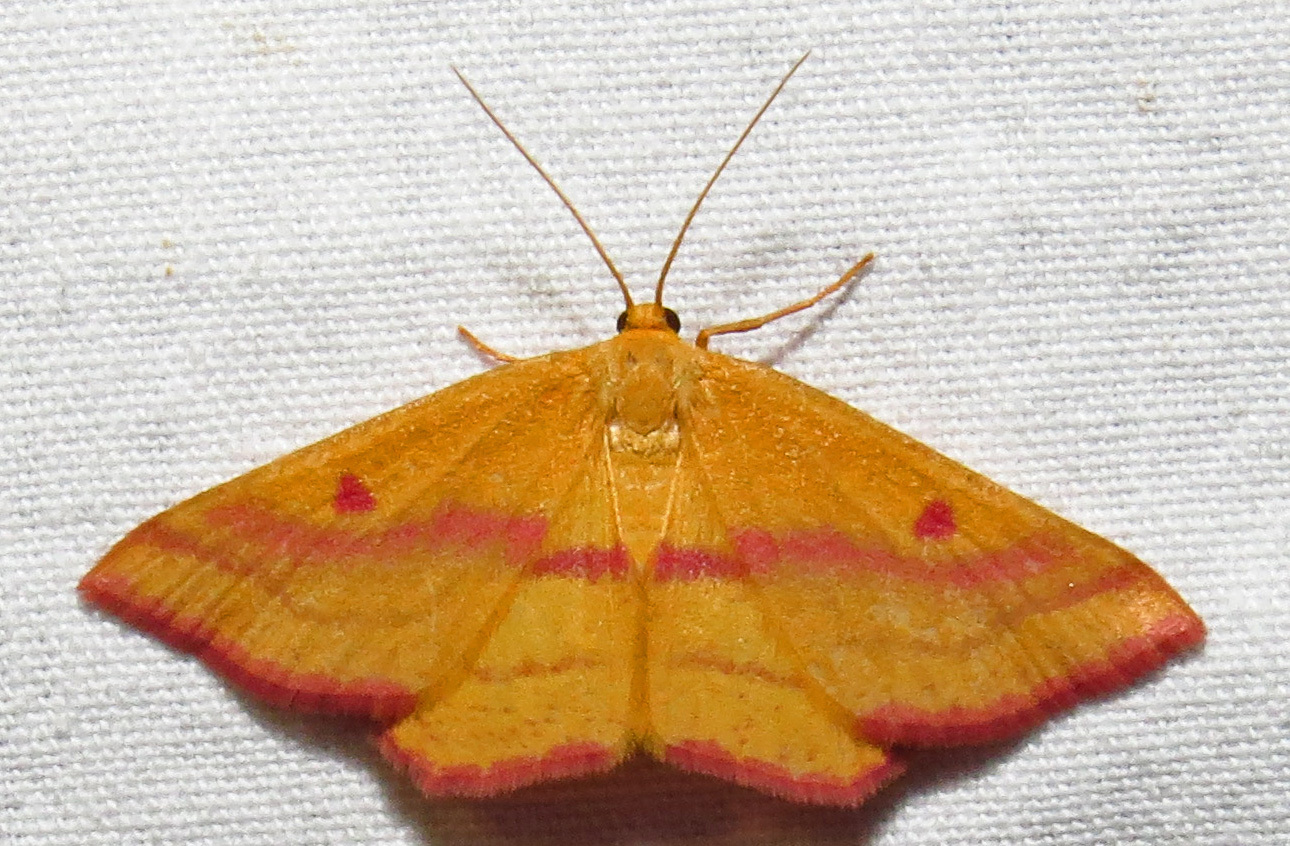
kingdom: Animalia
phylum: Arthropoda
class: Insecta
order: Lepidoptera
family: Geometridae
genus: Haematopis
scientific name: Haematopis grataria
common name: Chickweed geometer
